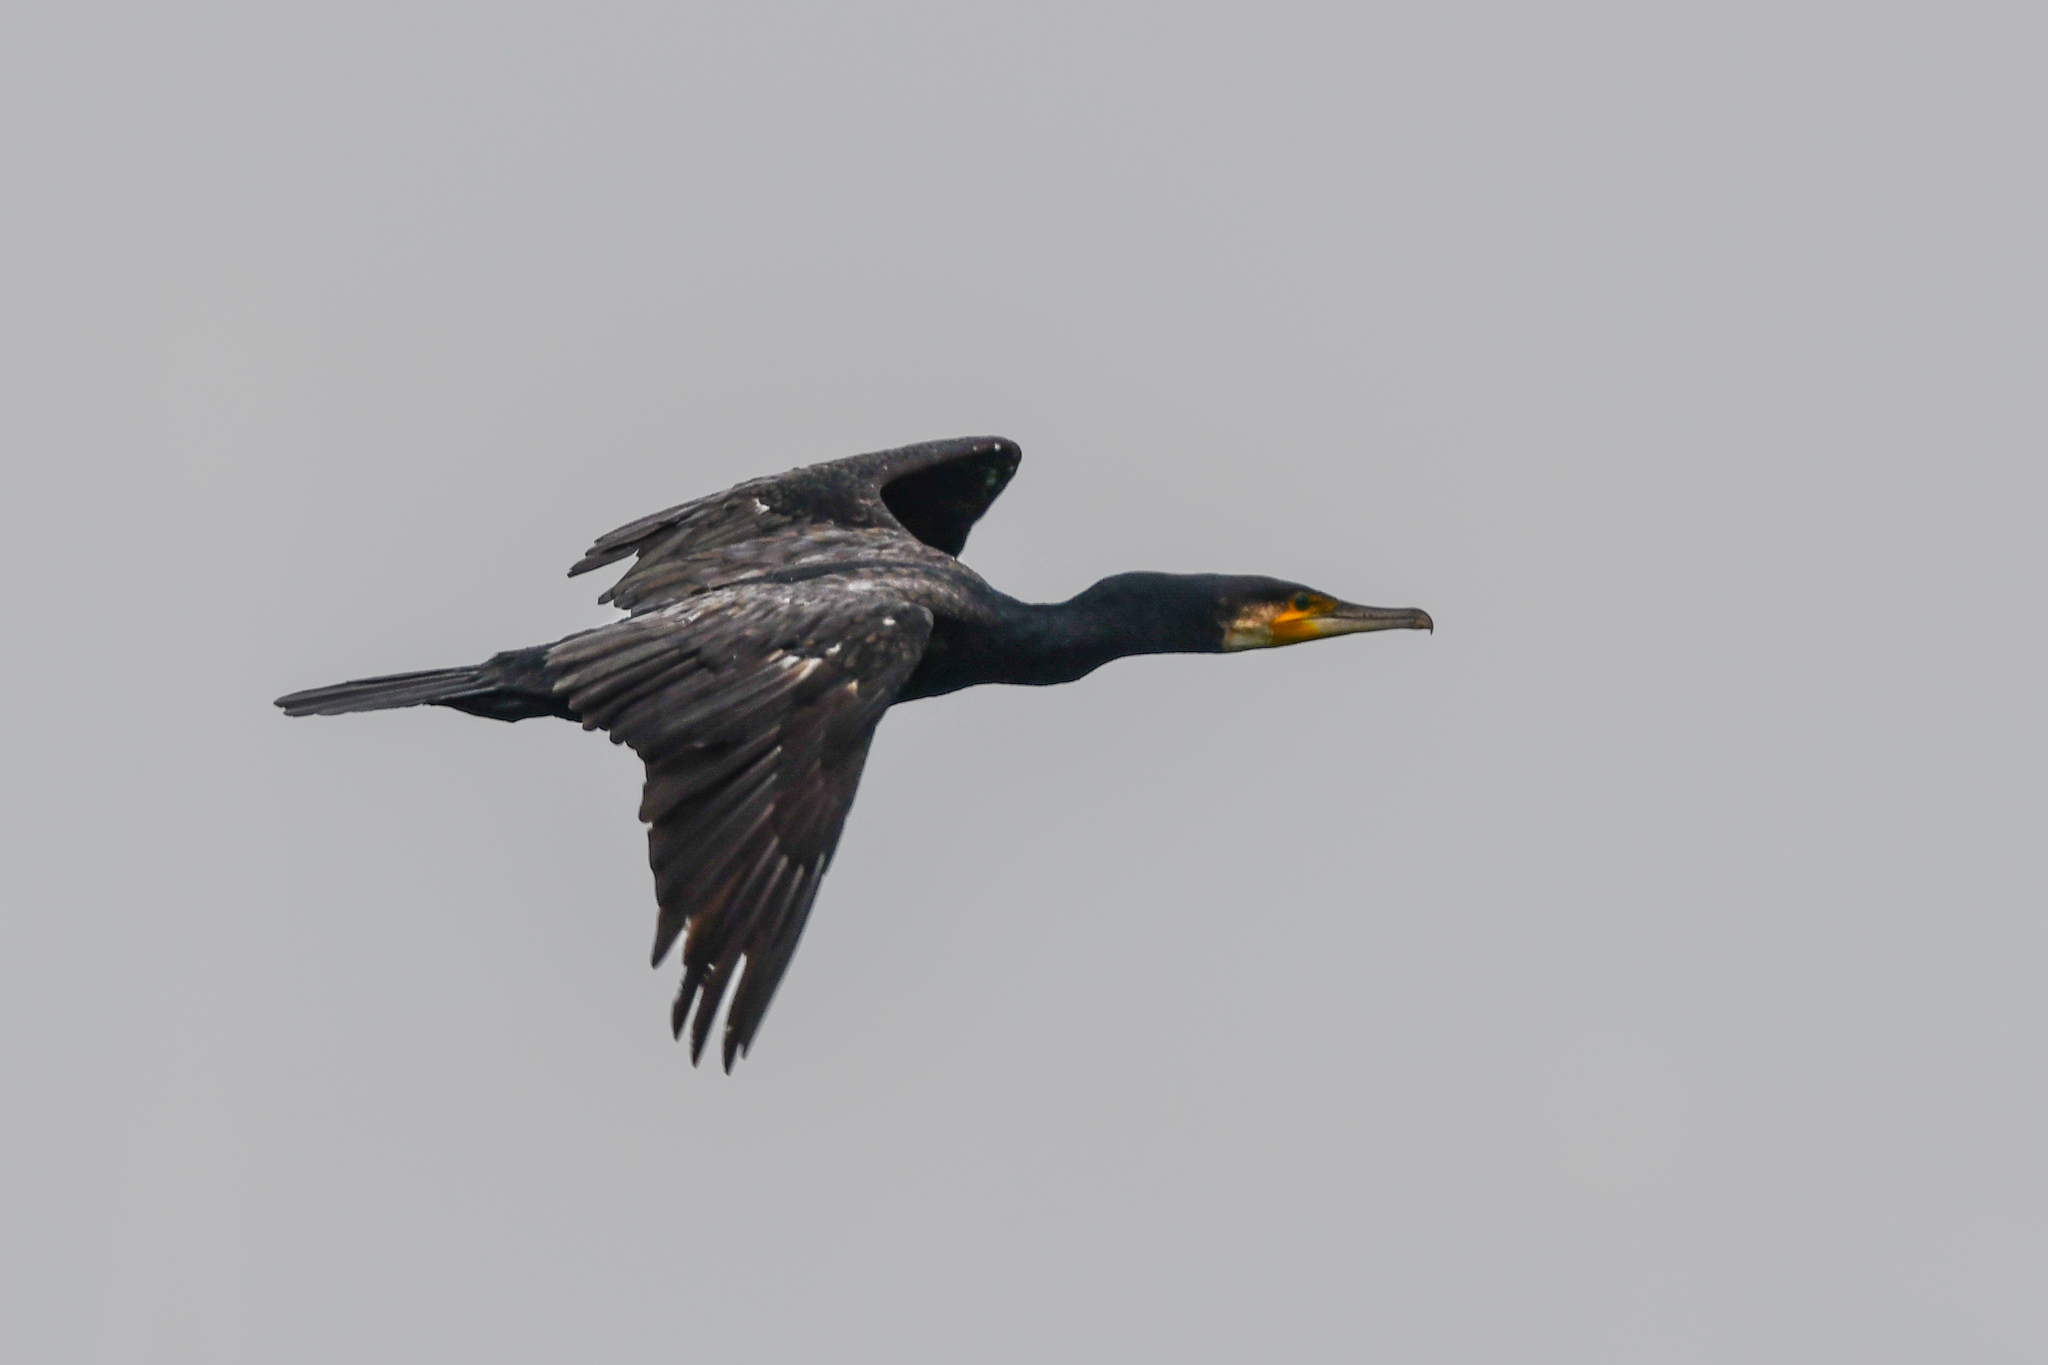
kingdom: Animalia
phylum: Chordata
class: Aves
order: Suliformes
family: Phalacrocoracidae
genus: Phalacrocorax
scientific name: Phalacrocorax carbo
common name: Great cormorant
